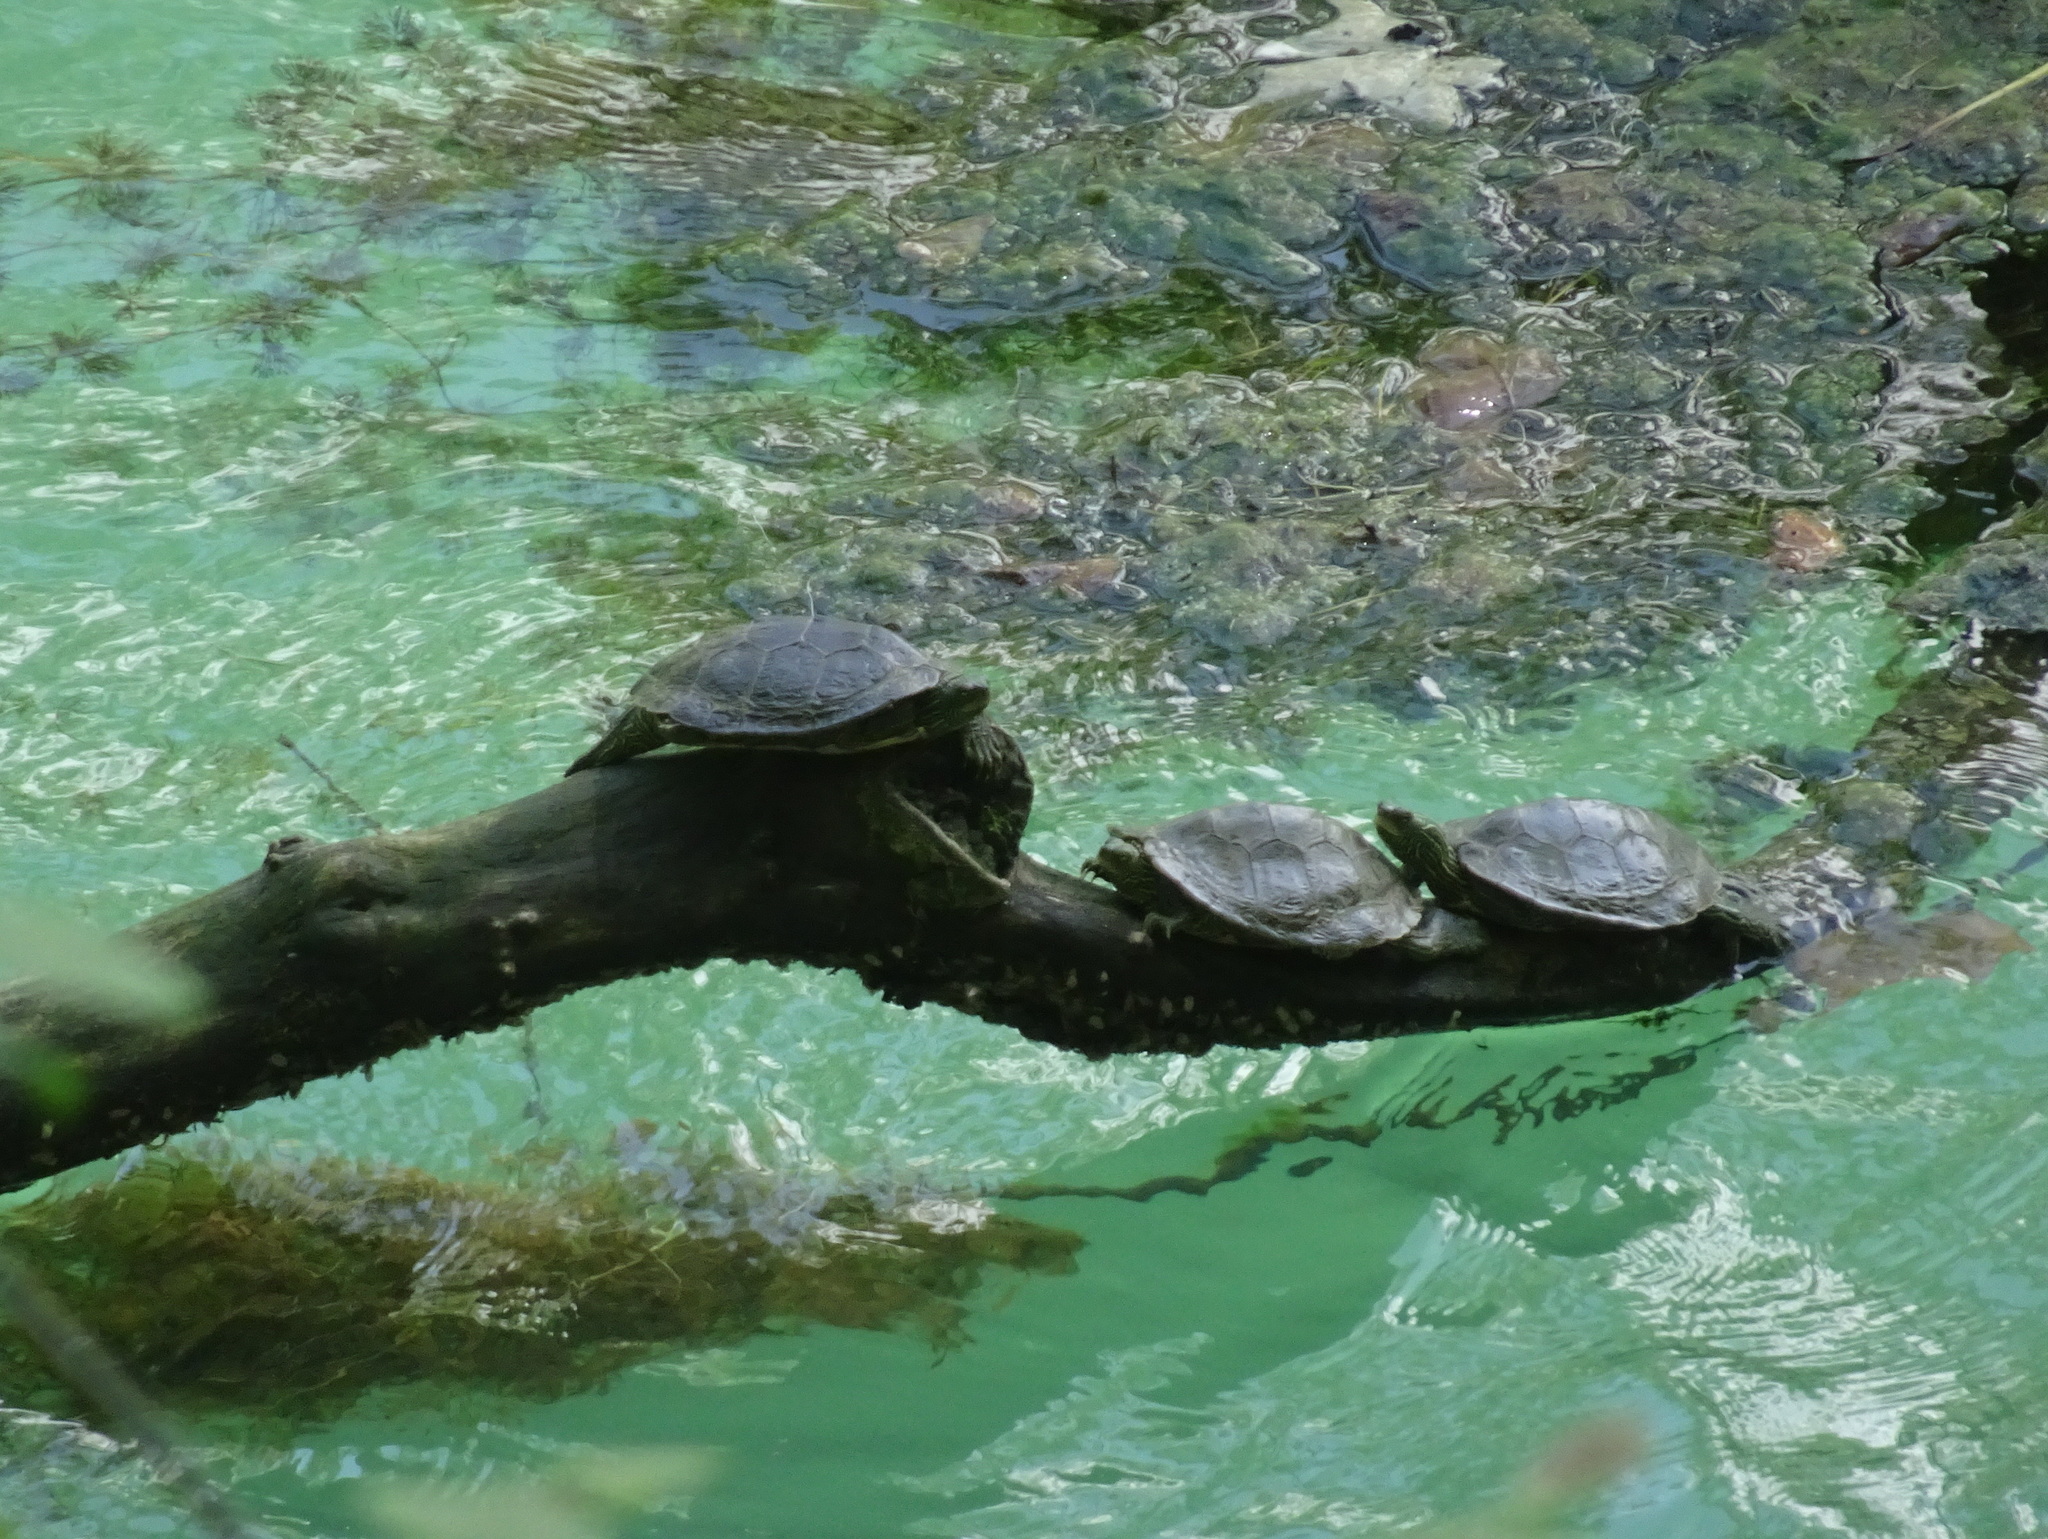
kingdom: Animalia
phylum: Chordata
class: Testudines
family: Emydidae
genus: Graptemys
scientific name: Graptemys geographica
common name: Common map turtle
